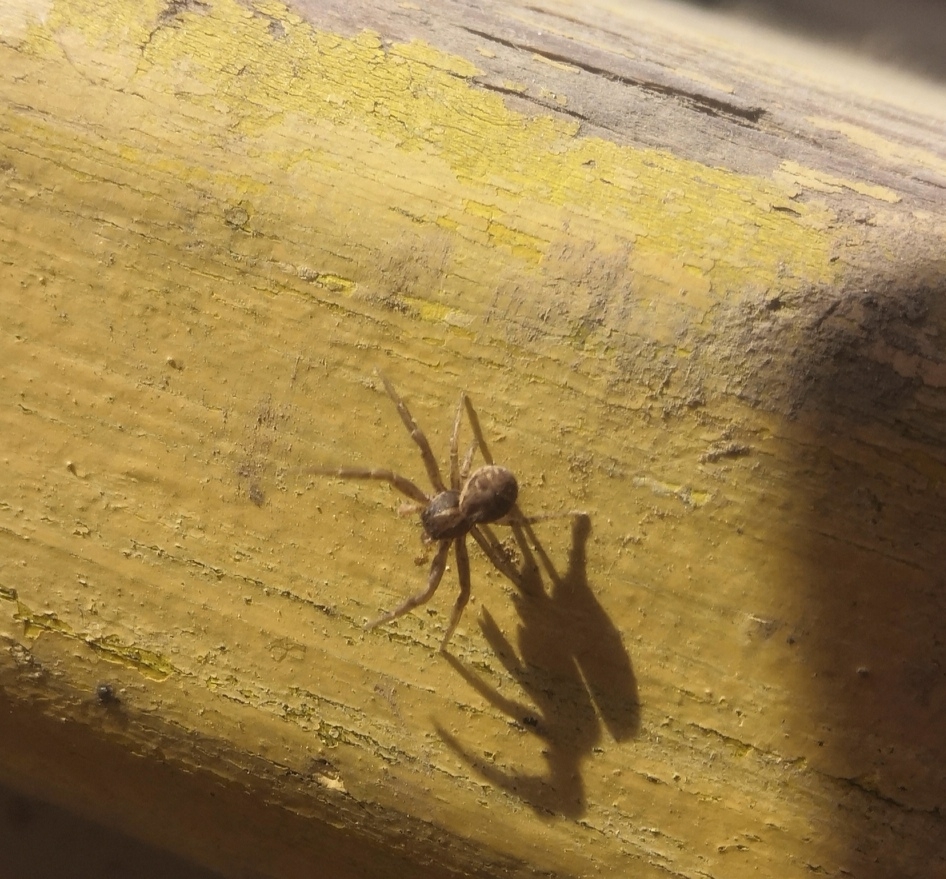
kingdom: Animalia
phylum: Arthropoda
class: Arachnida
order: Araneae
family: Thomisidae
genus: Xysticus
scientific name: Xysticus ulmi
